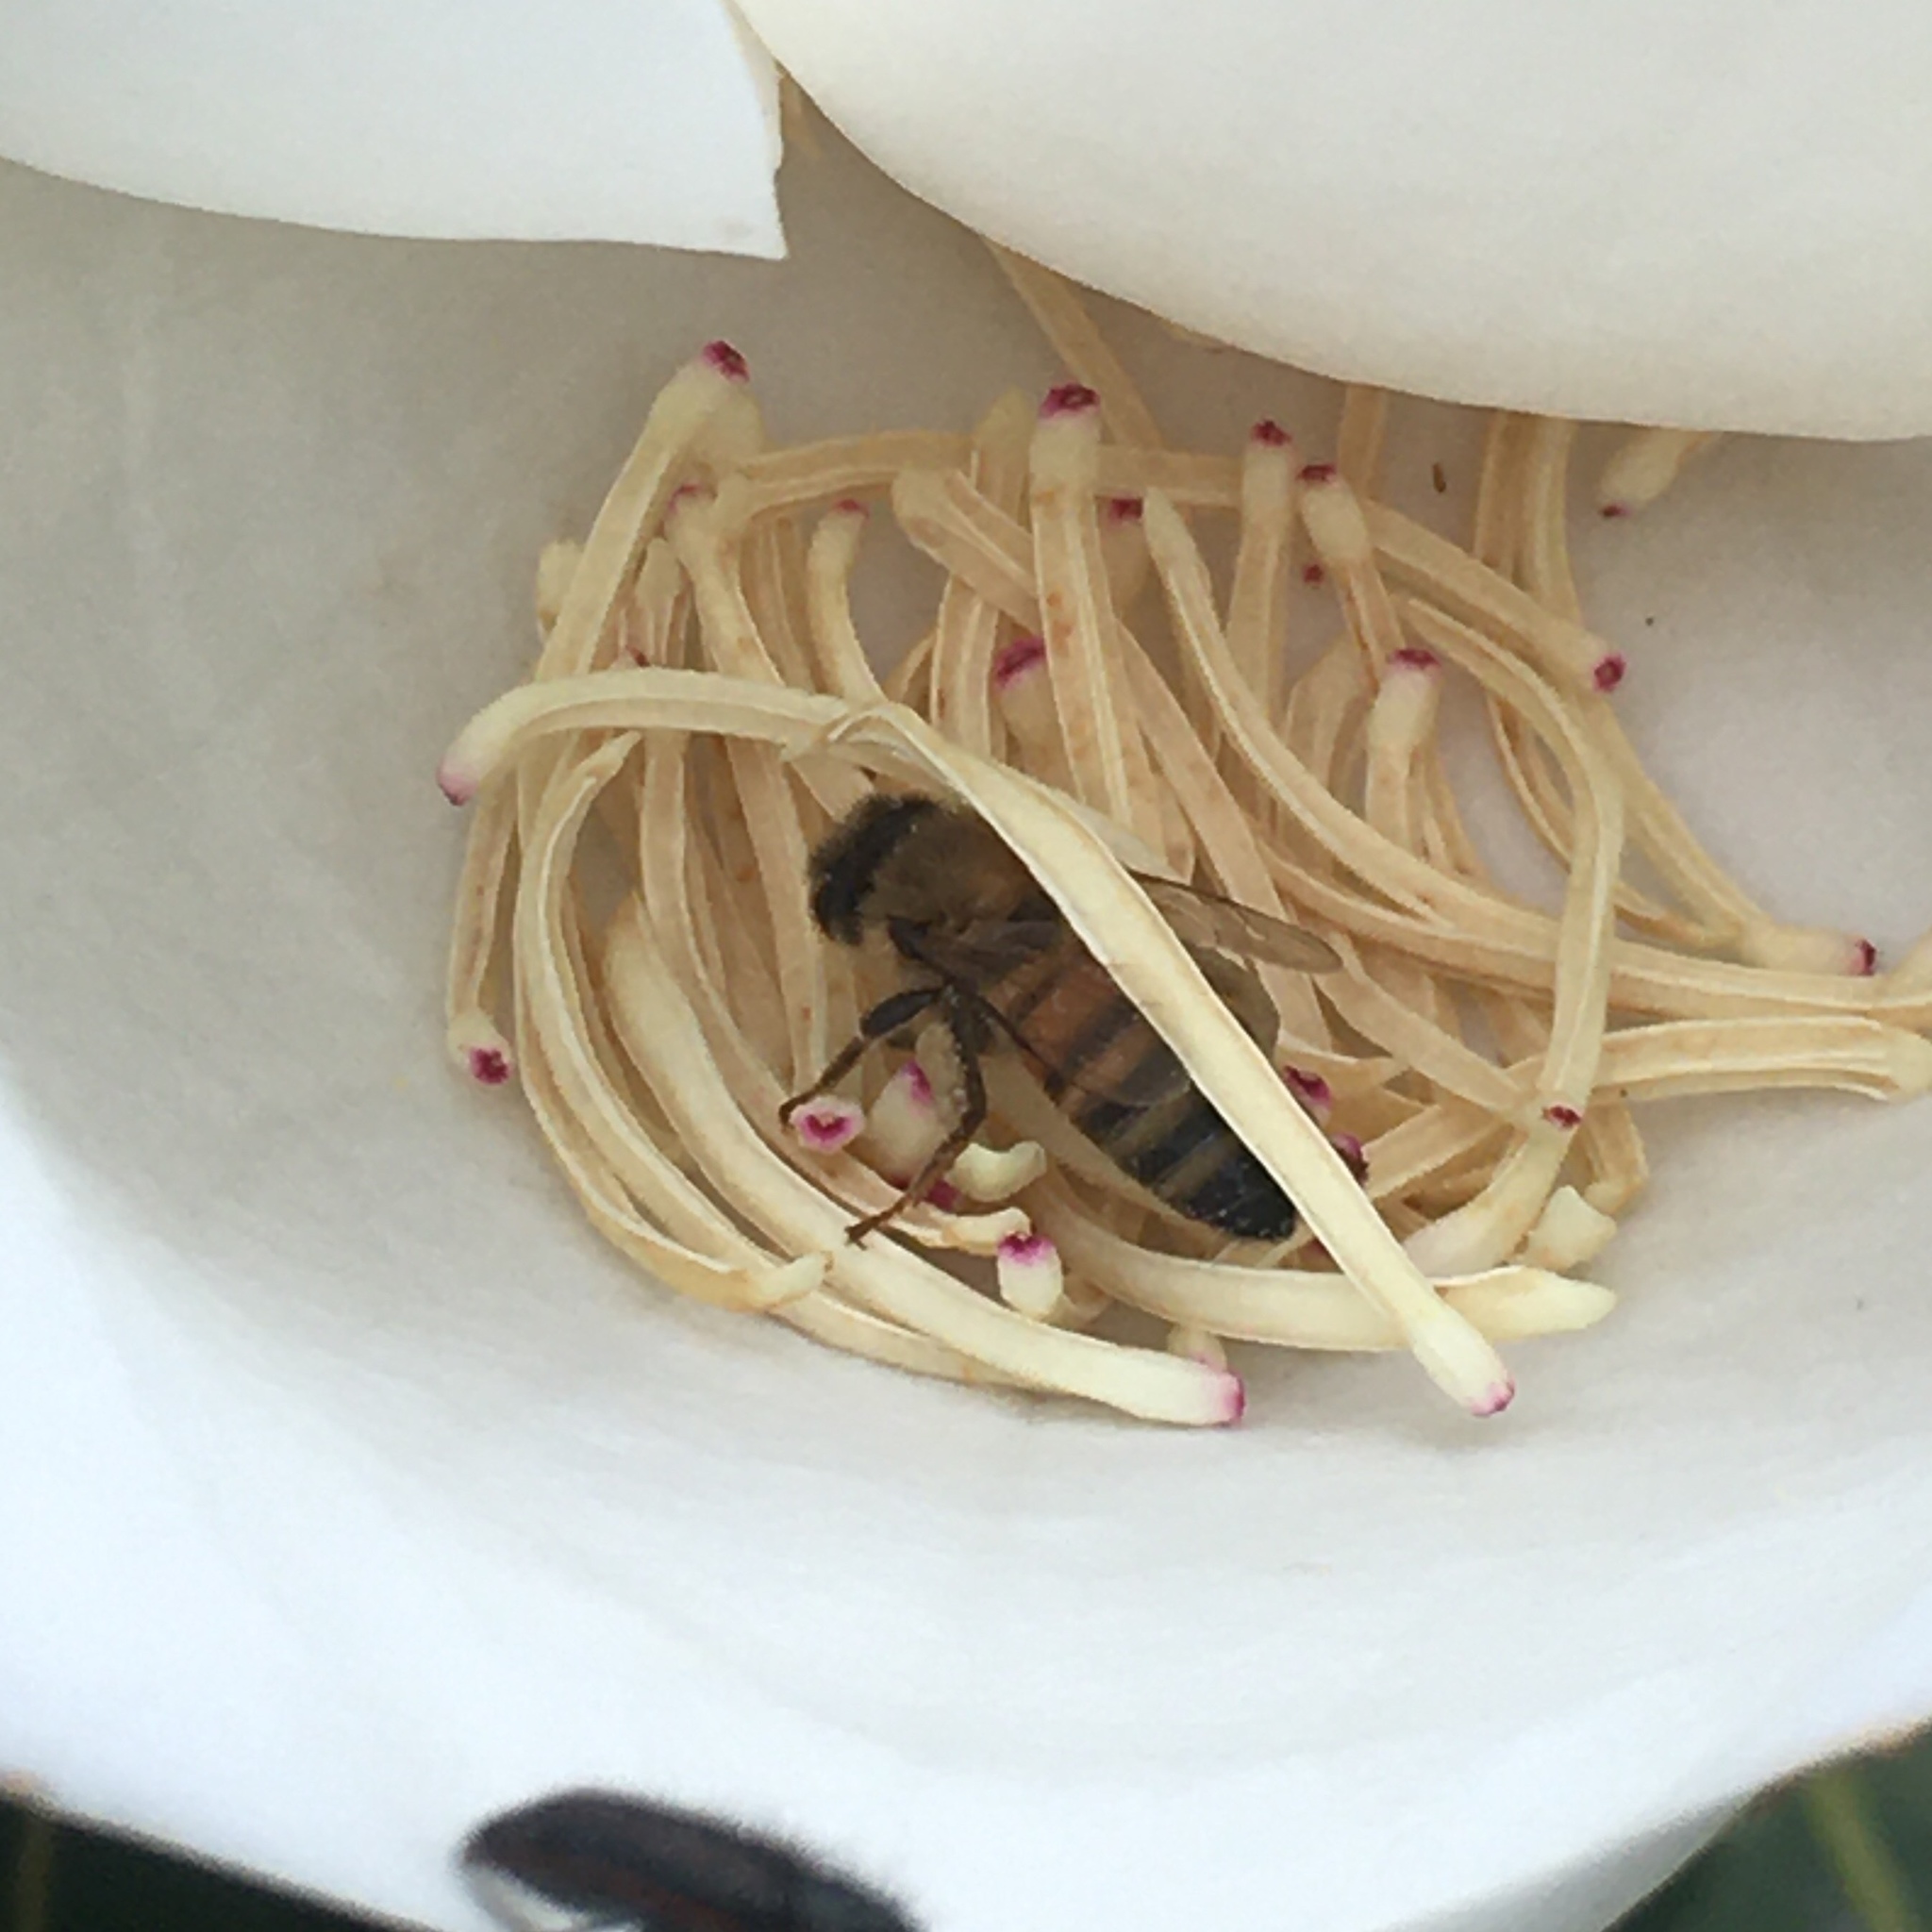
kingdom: Animalia
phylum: Arthropoda
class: Insecta
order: Hymenoptera
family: Apidae
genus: Apis
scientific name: Apis mellifera
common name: Honey bee
